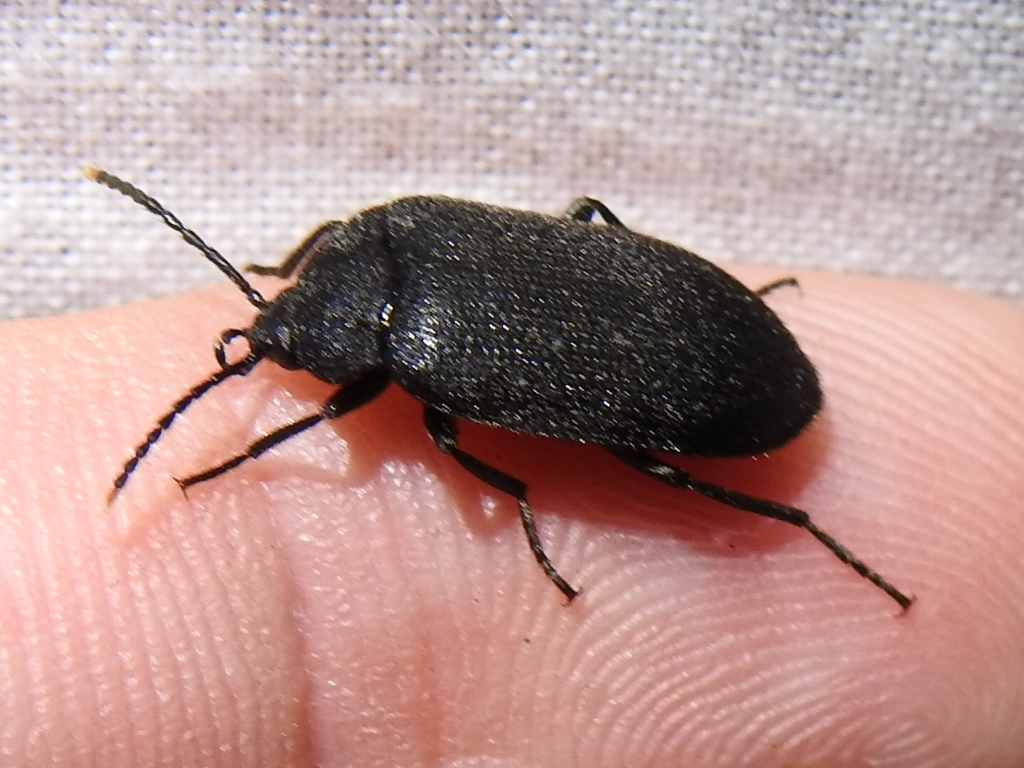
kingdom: Animalia
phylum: Arthropoda
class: Insecta
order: Coleoptera
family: Tetratomidae
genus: Penthe
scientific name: Penthe pimelia
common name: Velvety bark beetle
